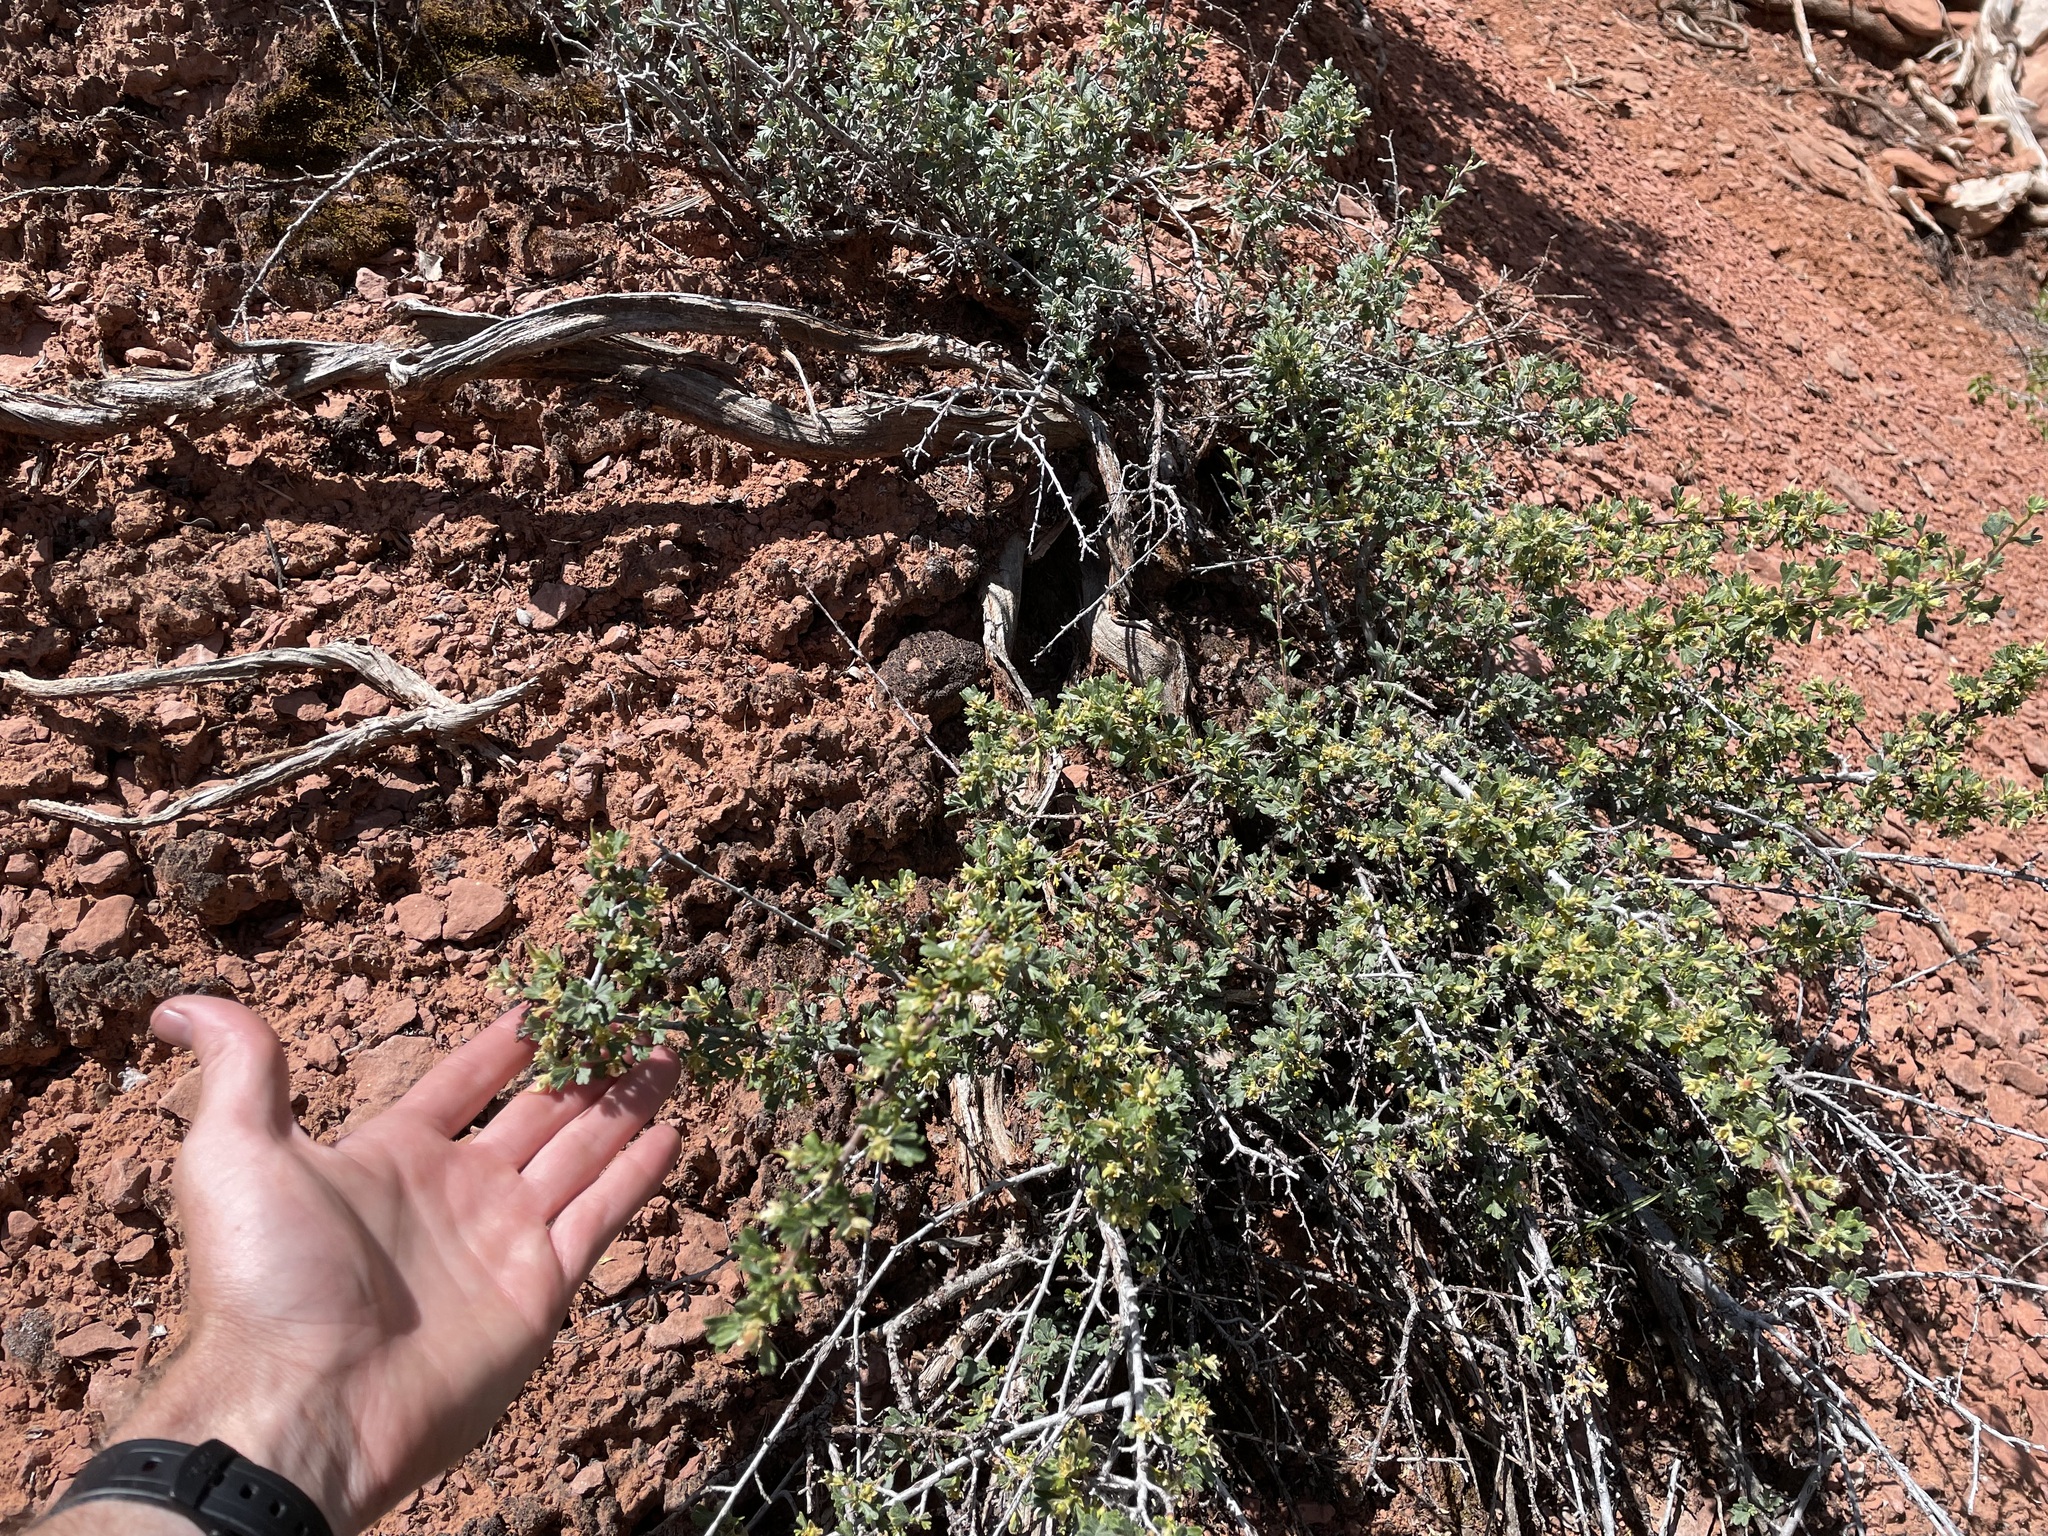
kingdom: Plantae
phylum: Tracheophyta
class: Magnoliopsida
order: Rosales
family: Rosaceae
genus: Purshia
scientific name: Purshia tridentata
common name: Antelope bitterbrush
